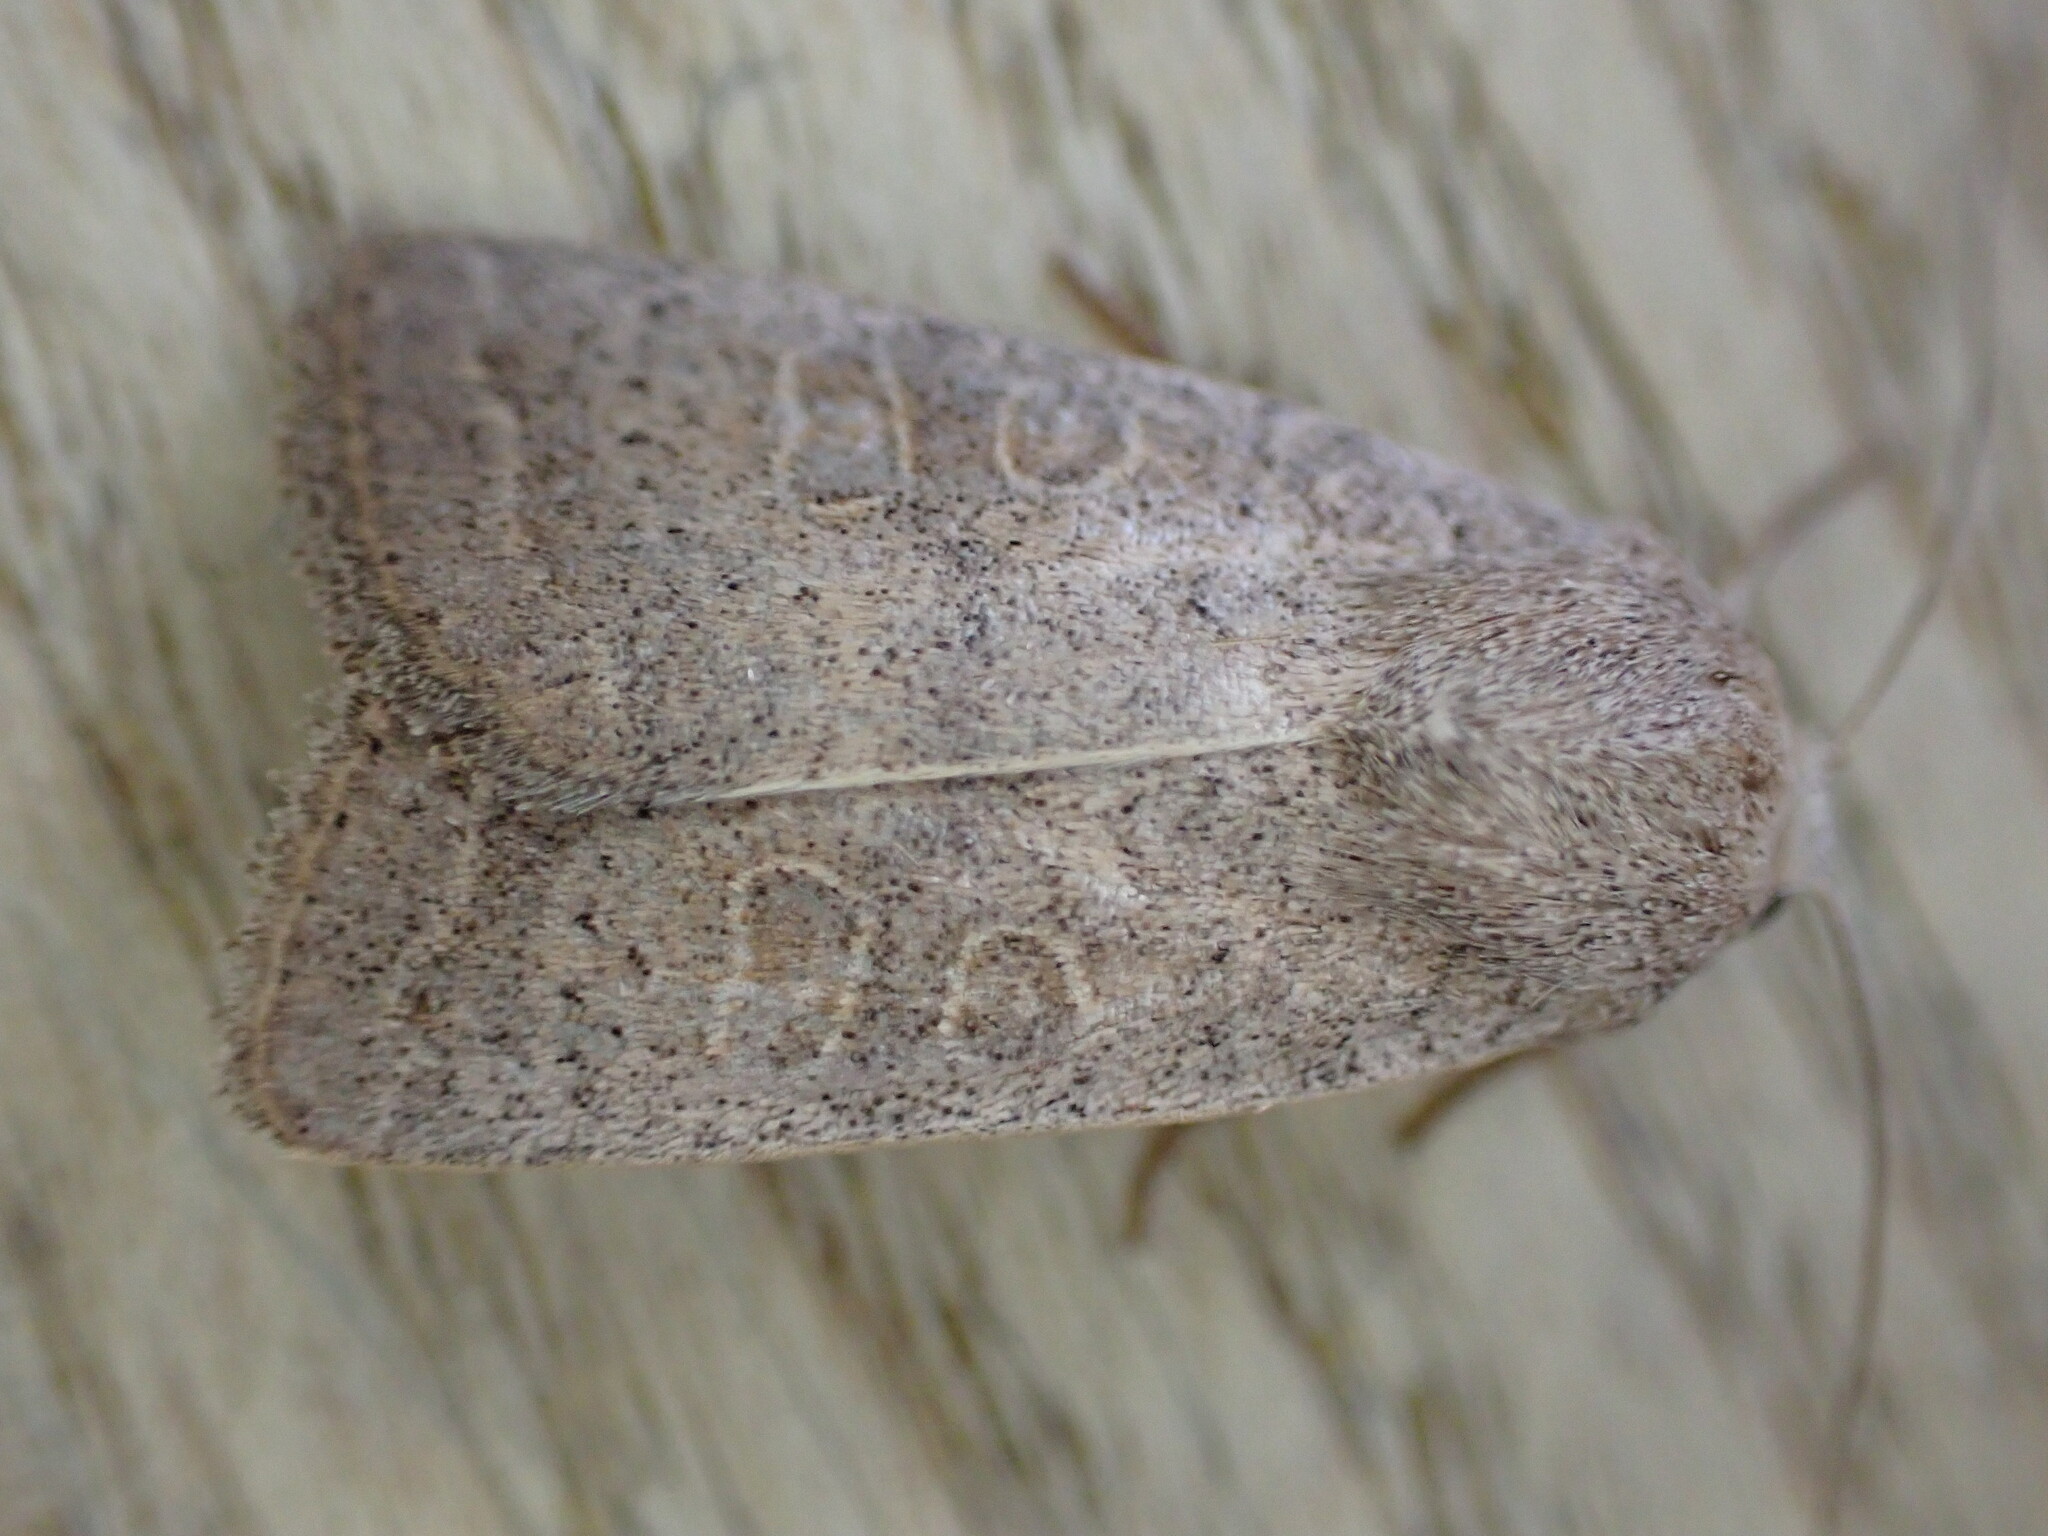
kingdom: Animalia
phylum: Arthropoda
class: Insecta
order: Lepidoptera
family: Noctuidae
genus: Hoplodrina
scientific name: Hoplodrina ambigua
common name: Vine's rustic
